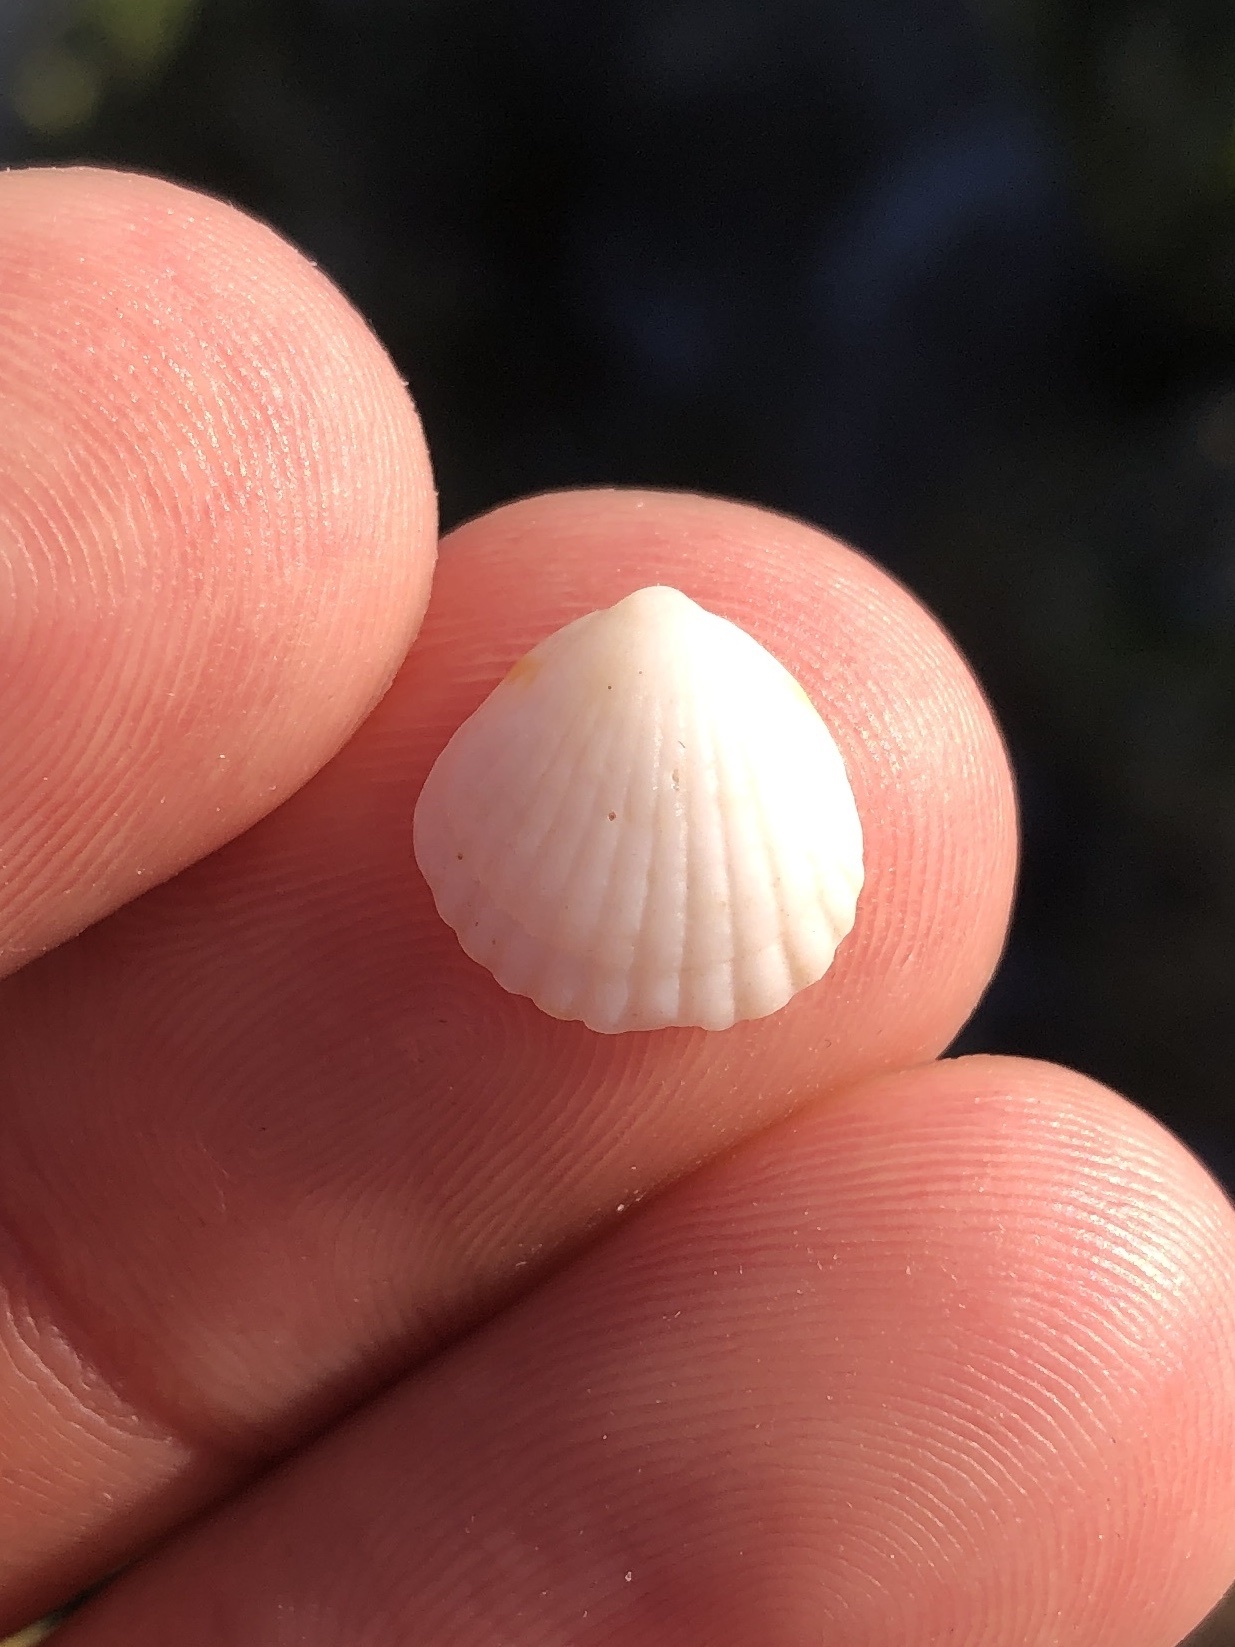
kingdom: Animalia
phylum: Mollusca
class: Bivalvia
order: Arcida
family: Glycymerididae
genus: Tucetona
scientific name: Tucetona pectinata
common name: Comb bittersweet
